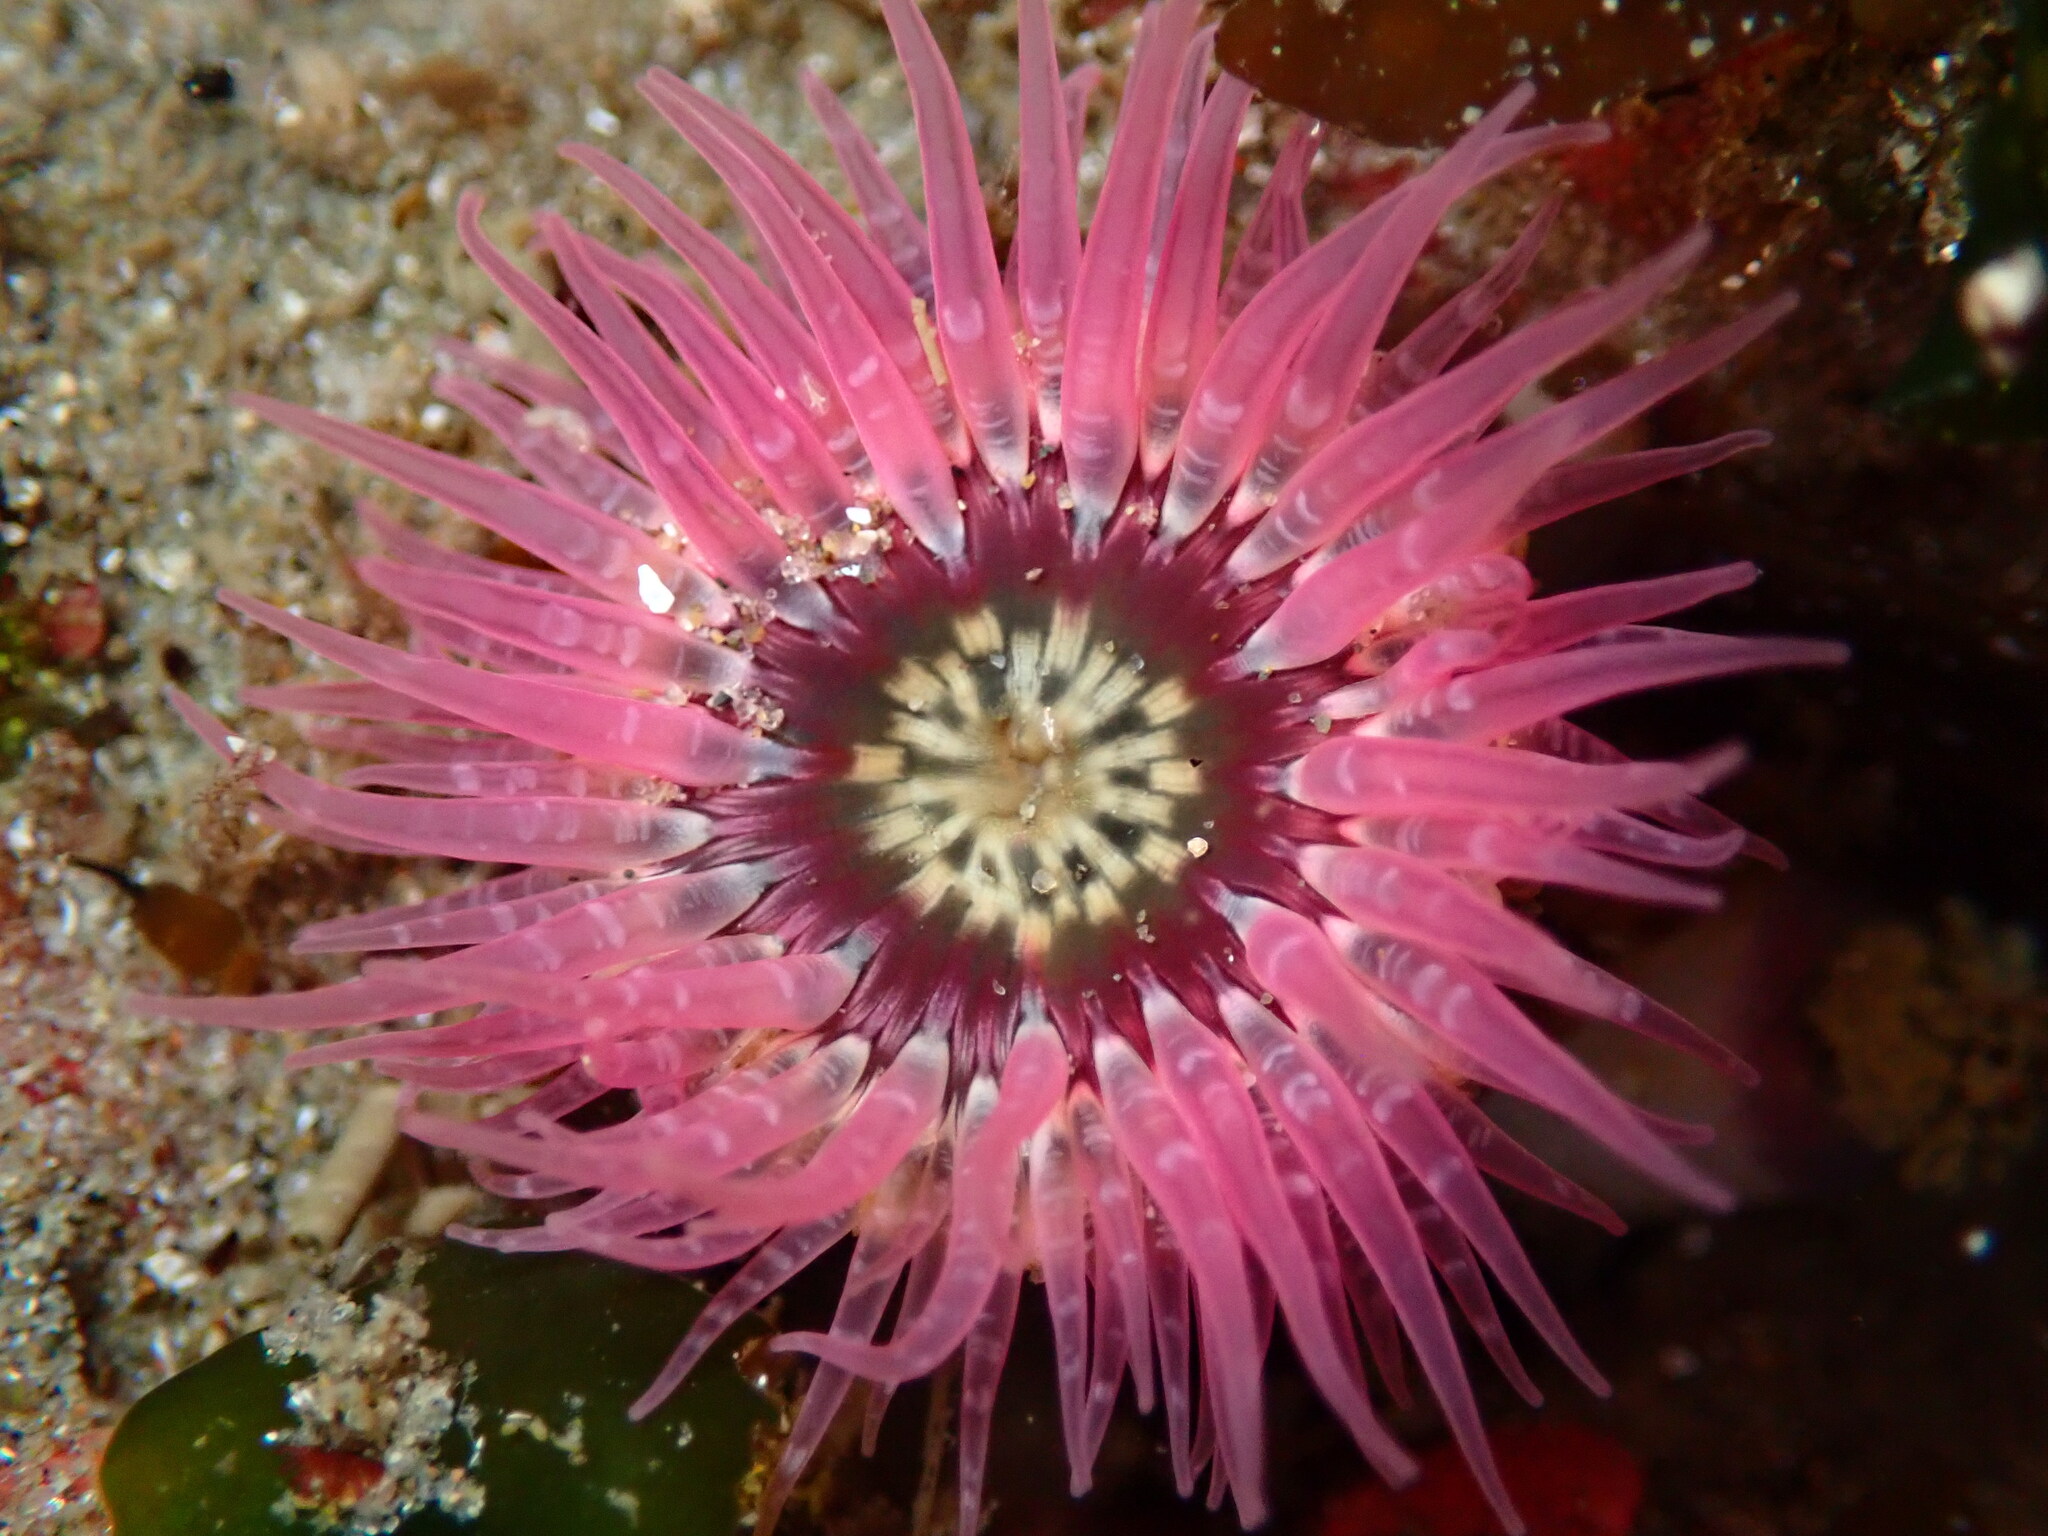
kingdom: Animalia
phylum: Cnidaria
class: Anthozoa
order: Actiniaria
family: Actiniidae
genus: Anthopleura
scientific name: Anthopleura artemisia
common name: Buried sea anemone
